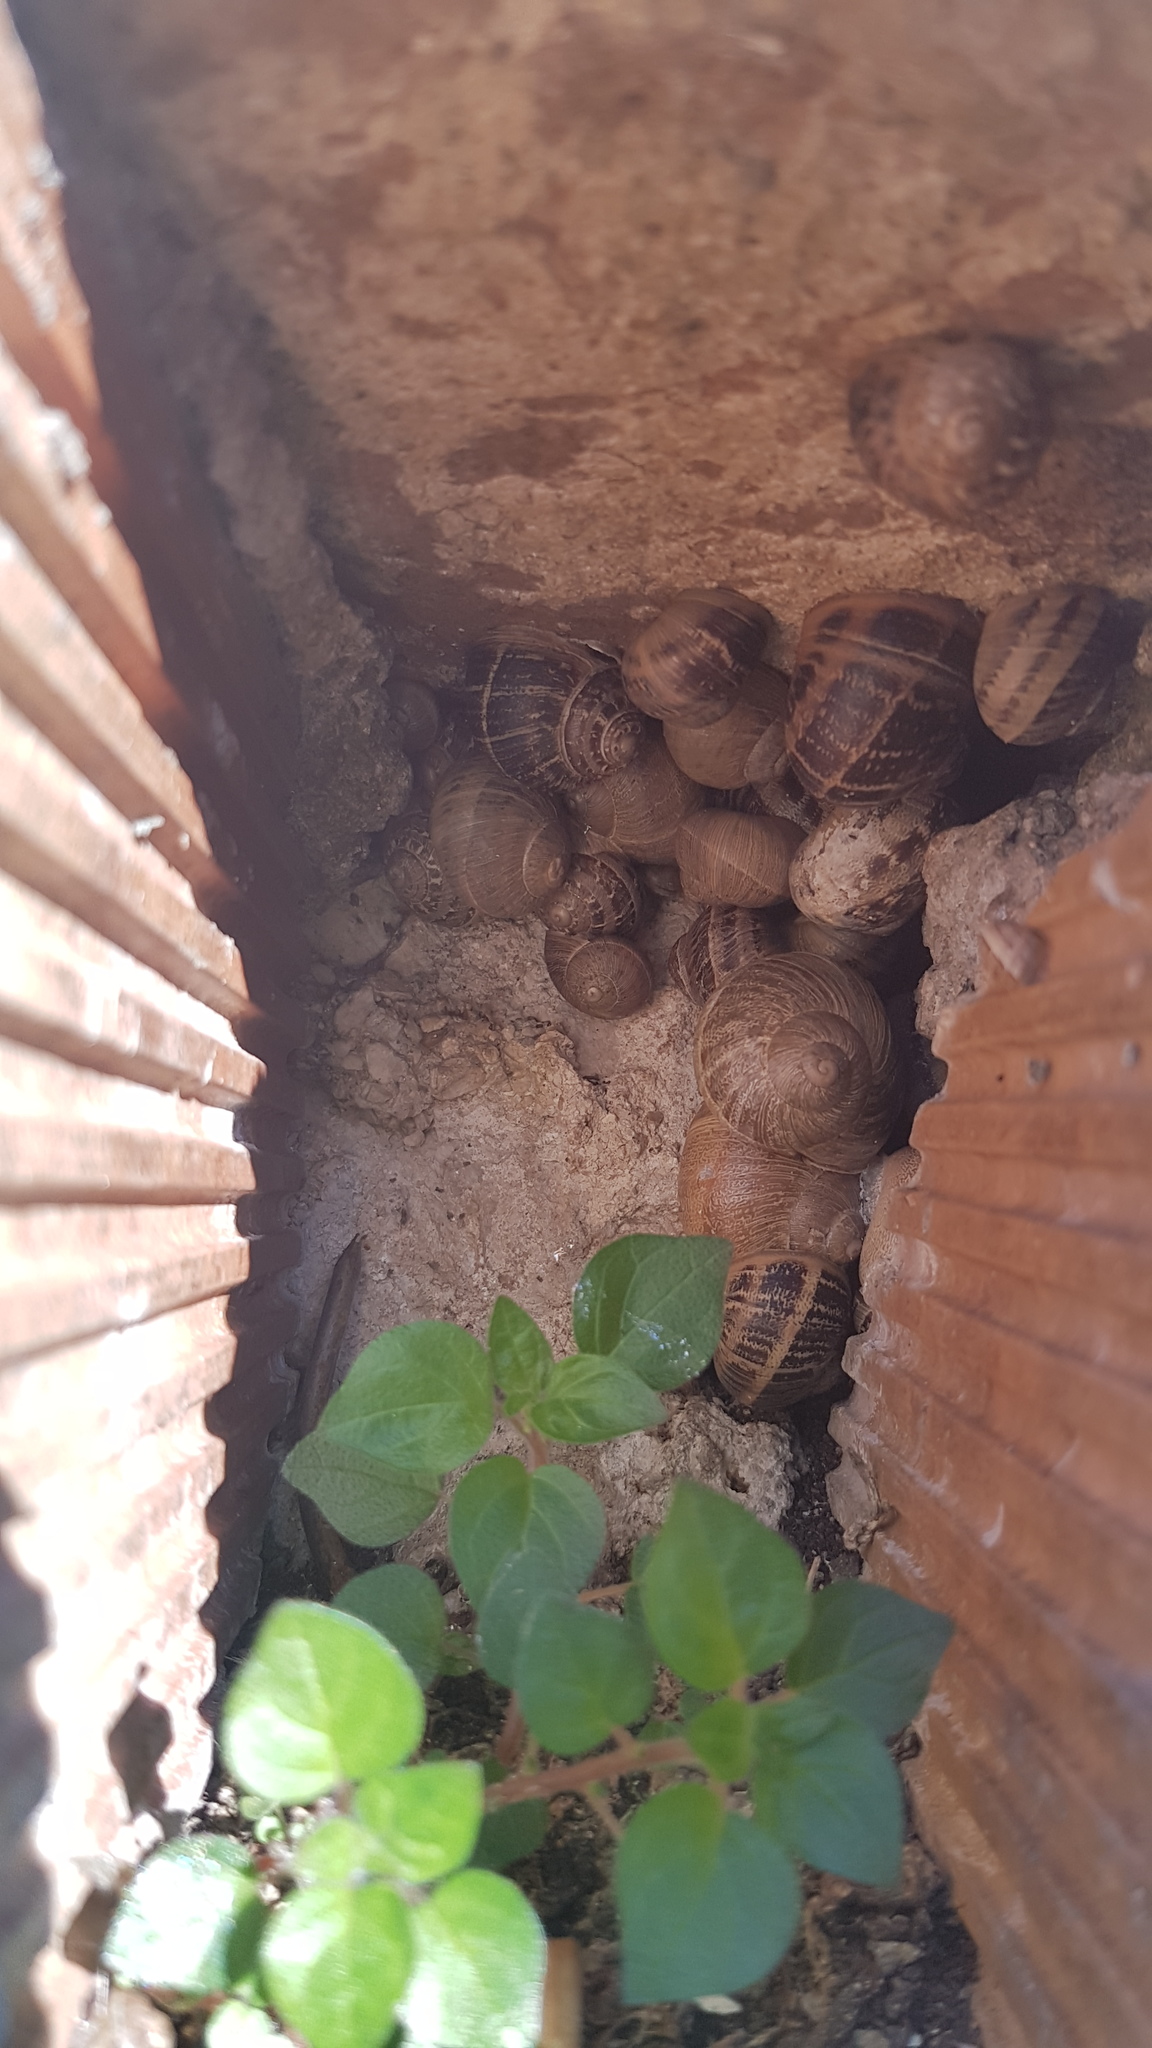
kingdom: Animalia
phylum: Mollusca
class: Gastropoda
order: Stylommatophora
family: Helicidae
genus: Cornu
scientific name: Cornu aspersum
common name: Brown garden snail
